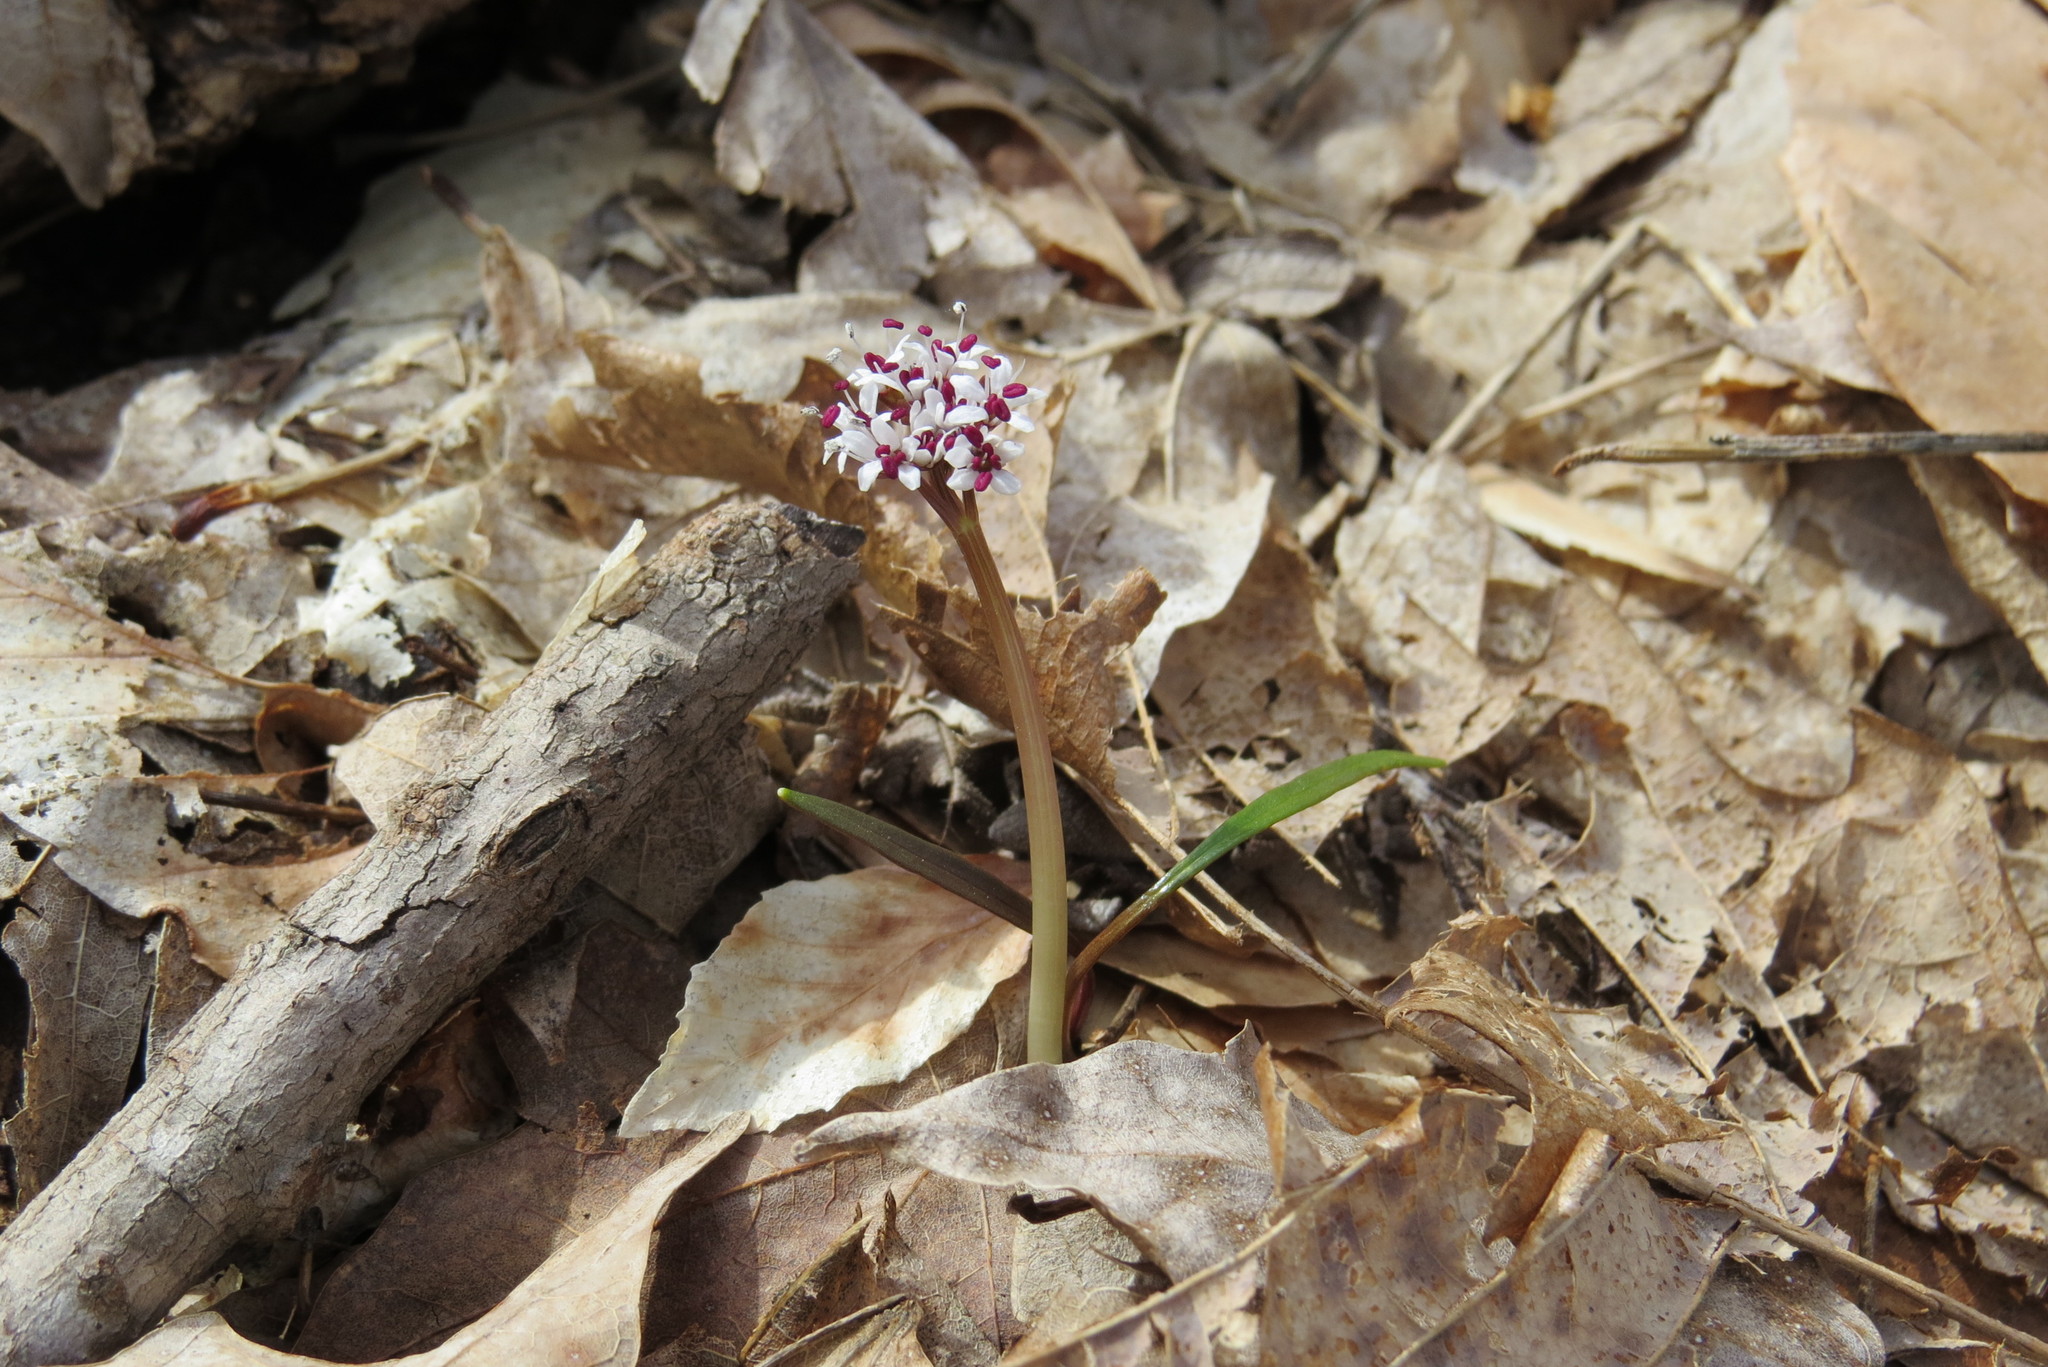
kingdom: Plantae
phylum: Tracheophyta
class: Magnoliopsida
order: Apiales
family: Apiaceae
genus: Erigenia
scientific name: Erigenia bulbosa
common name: Pepper-and-salt
